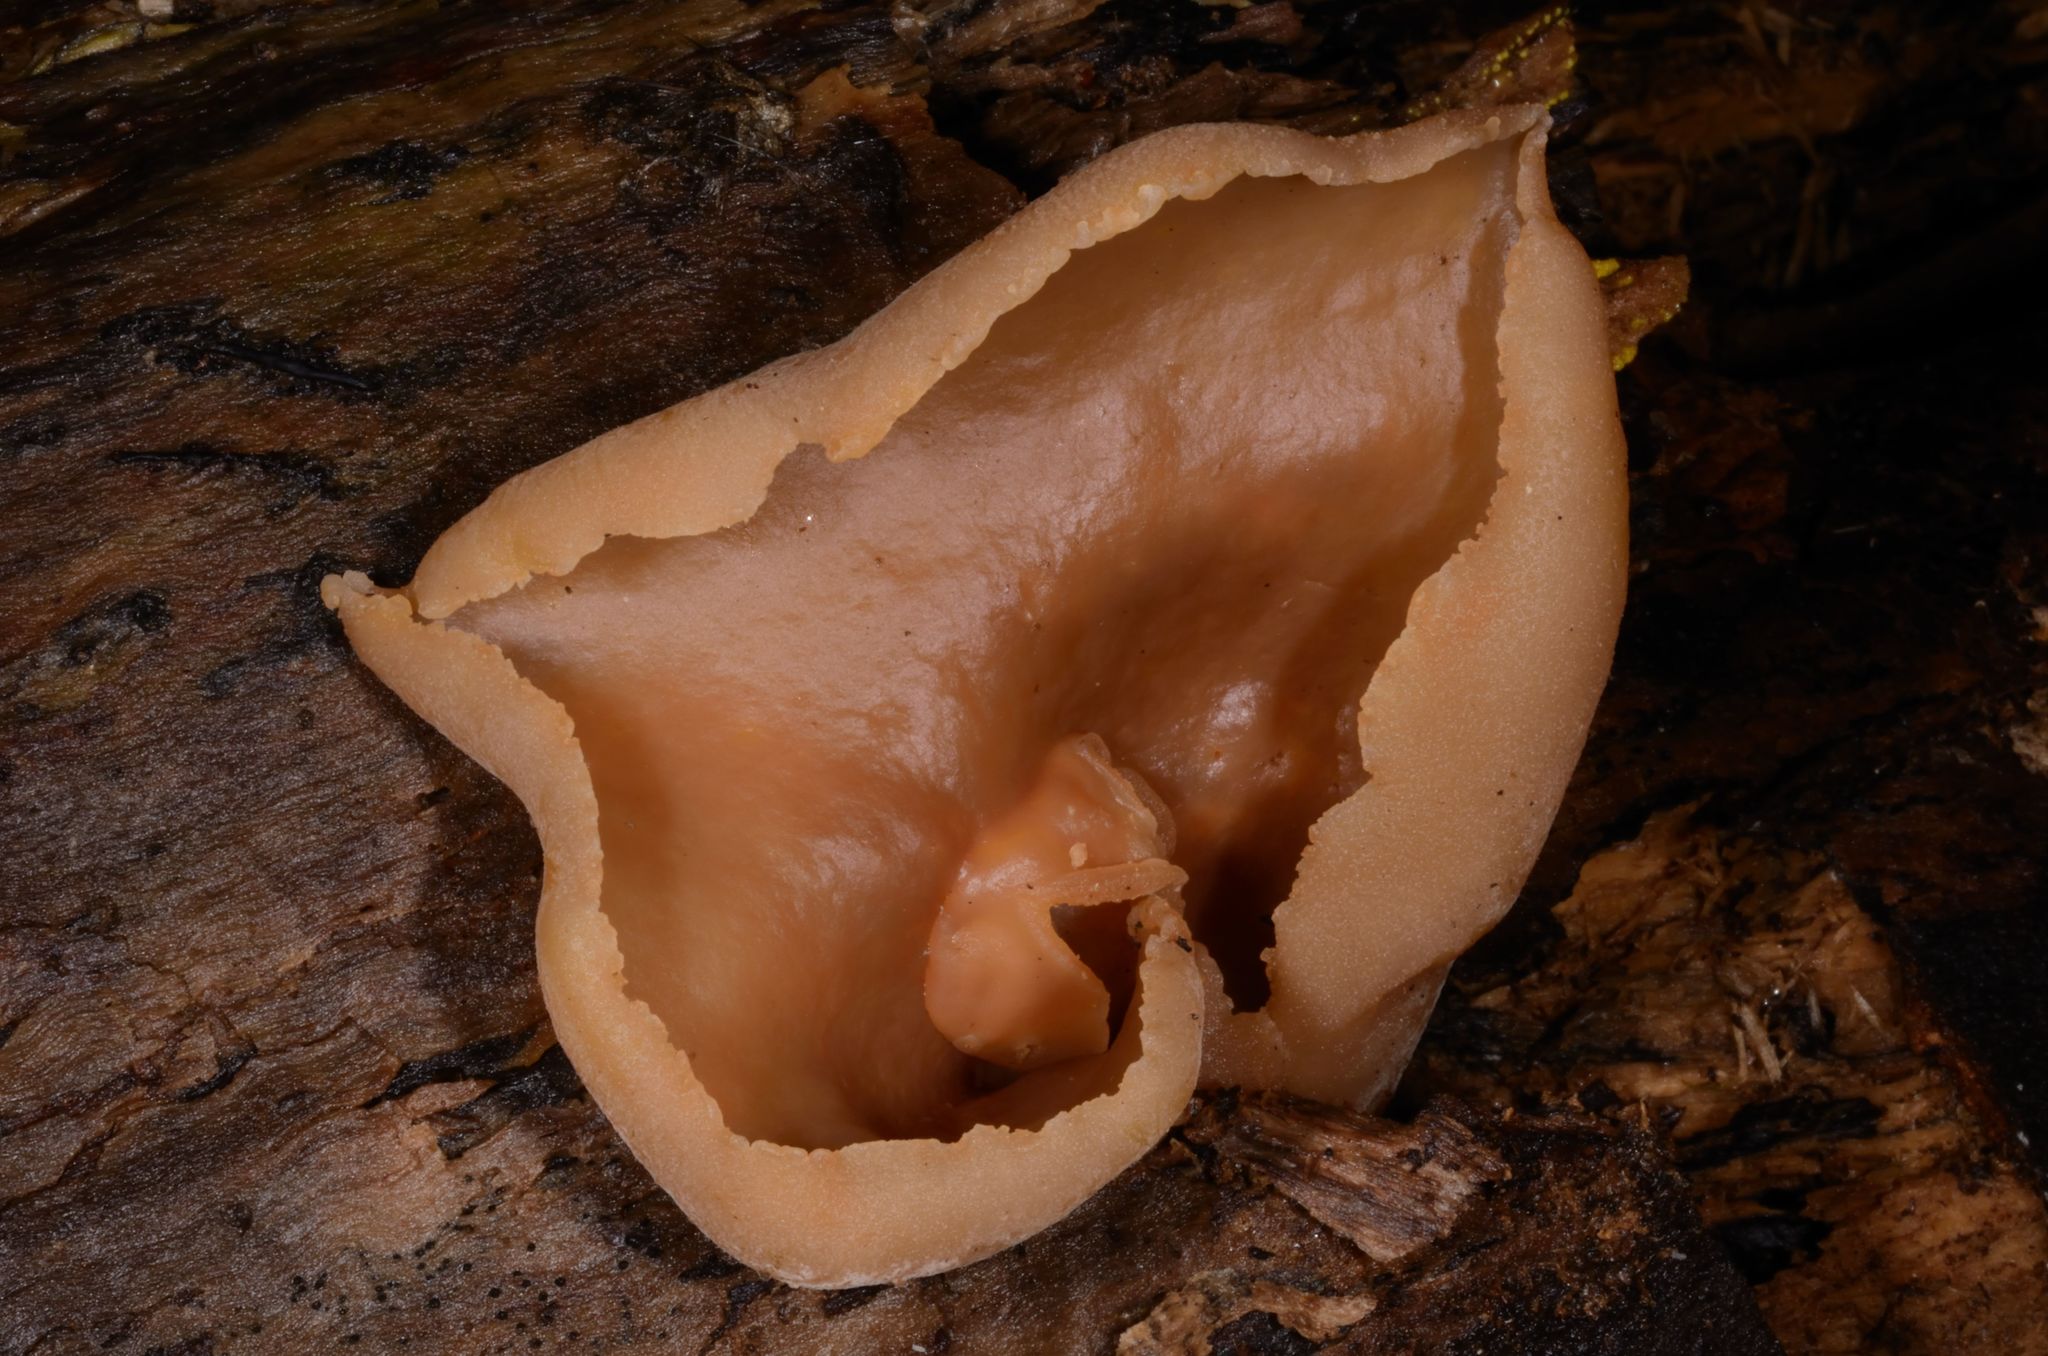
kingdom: Fungi
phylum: Ascomycota
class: Pezizomycetes
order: Pezizales
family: Pezizaceae
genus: Peziza
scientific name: Peziza varia
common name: Layered cup
